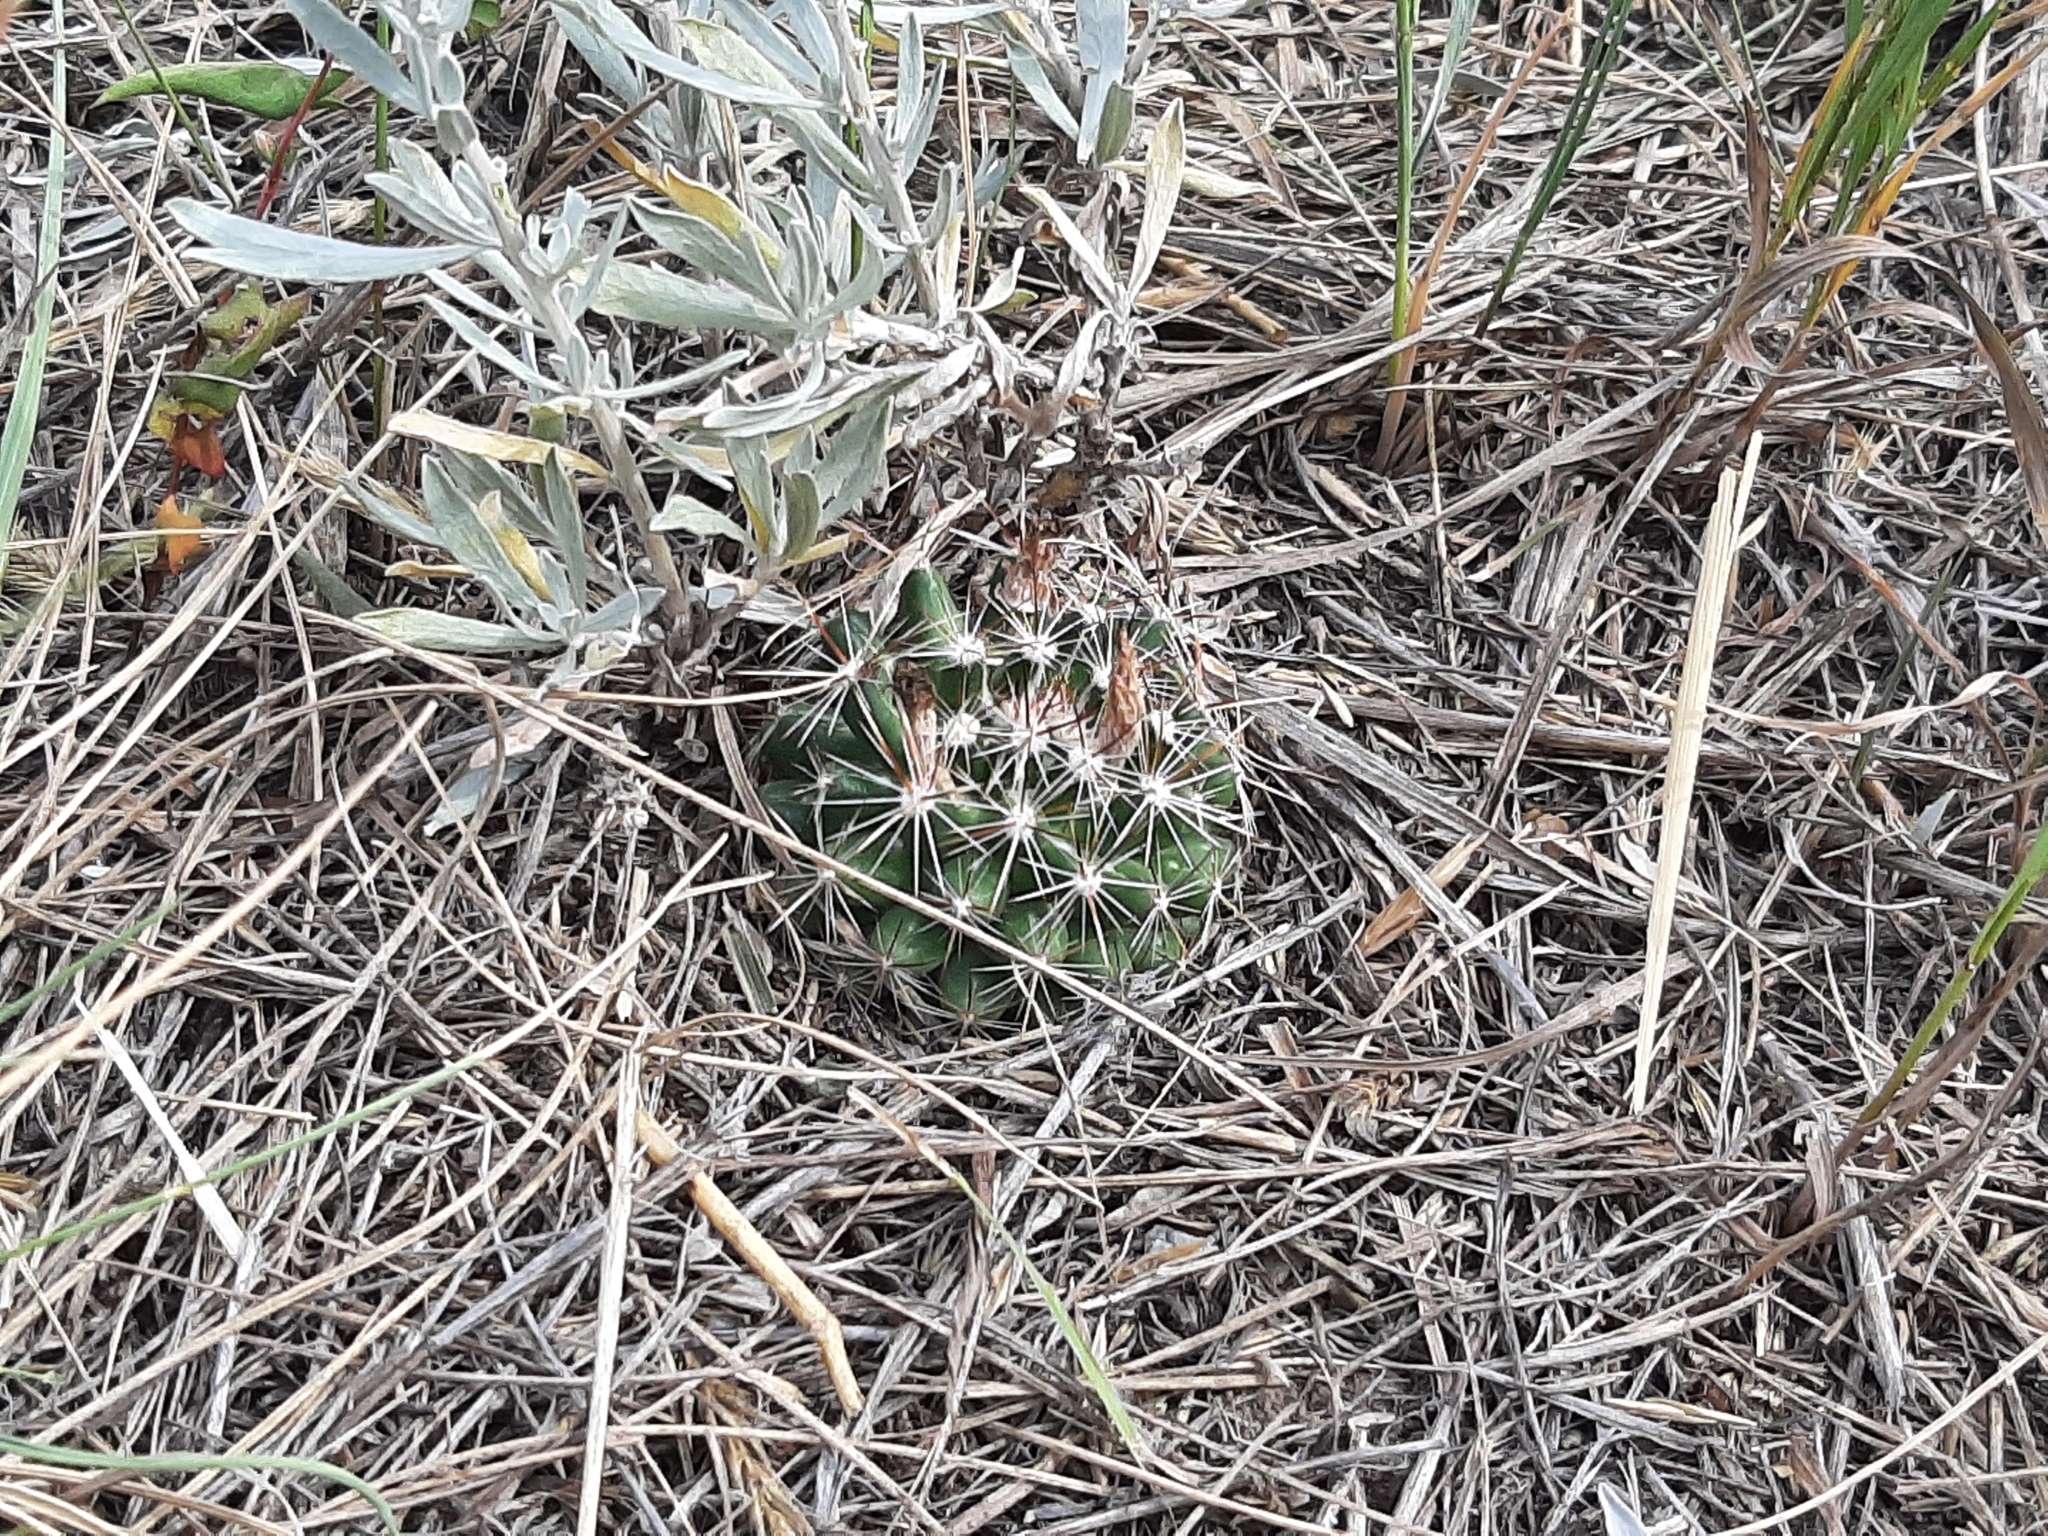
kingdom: Plantae
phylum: Tracheophyta
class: Magnoliopsida
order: Caryophyllales
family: Cactaceae
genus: Pelecyphora
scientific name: Pelecyphora vivipara
